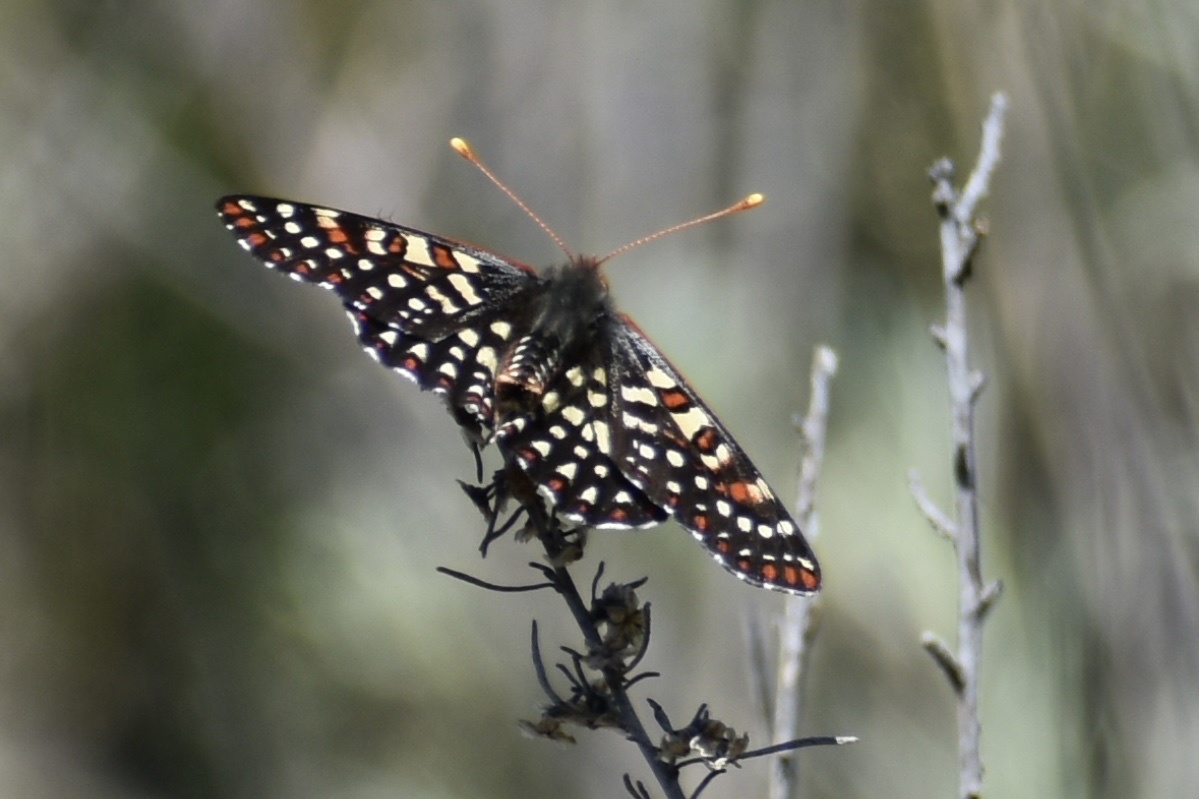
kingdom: Animalia
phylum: Arthropoda
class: Insecta
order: Lepidoptera
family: Nymphalidae
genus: Occidryas
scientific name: Occidryas chalcedona
